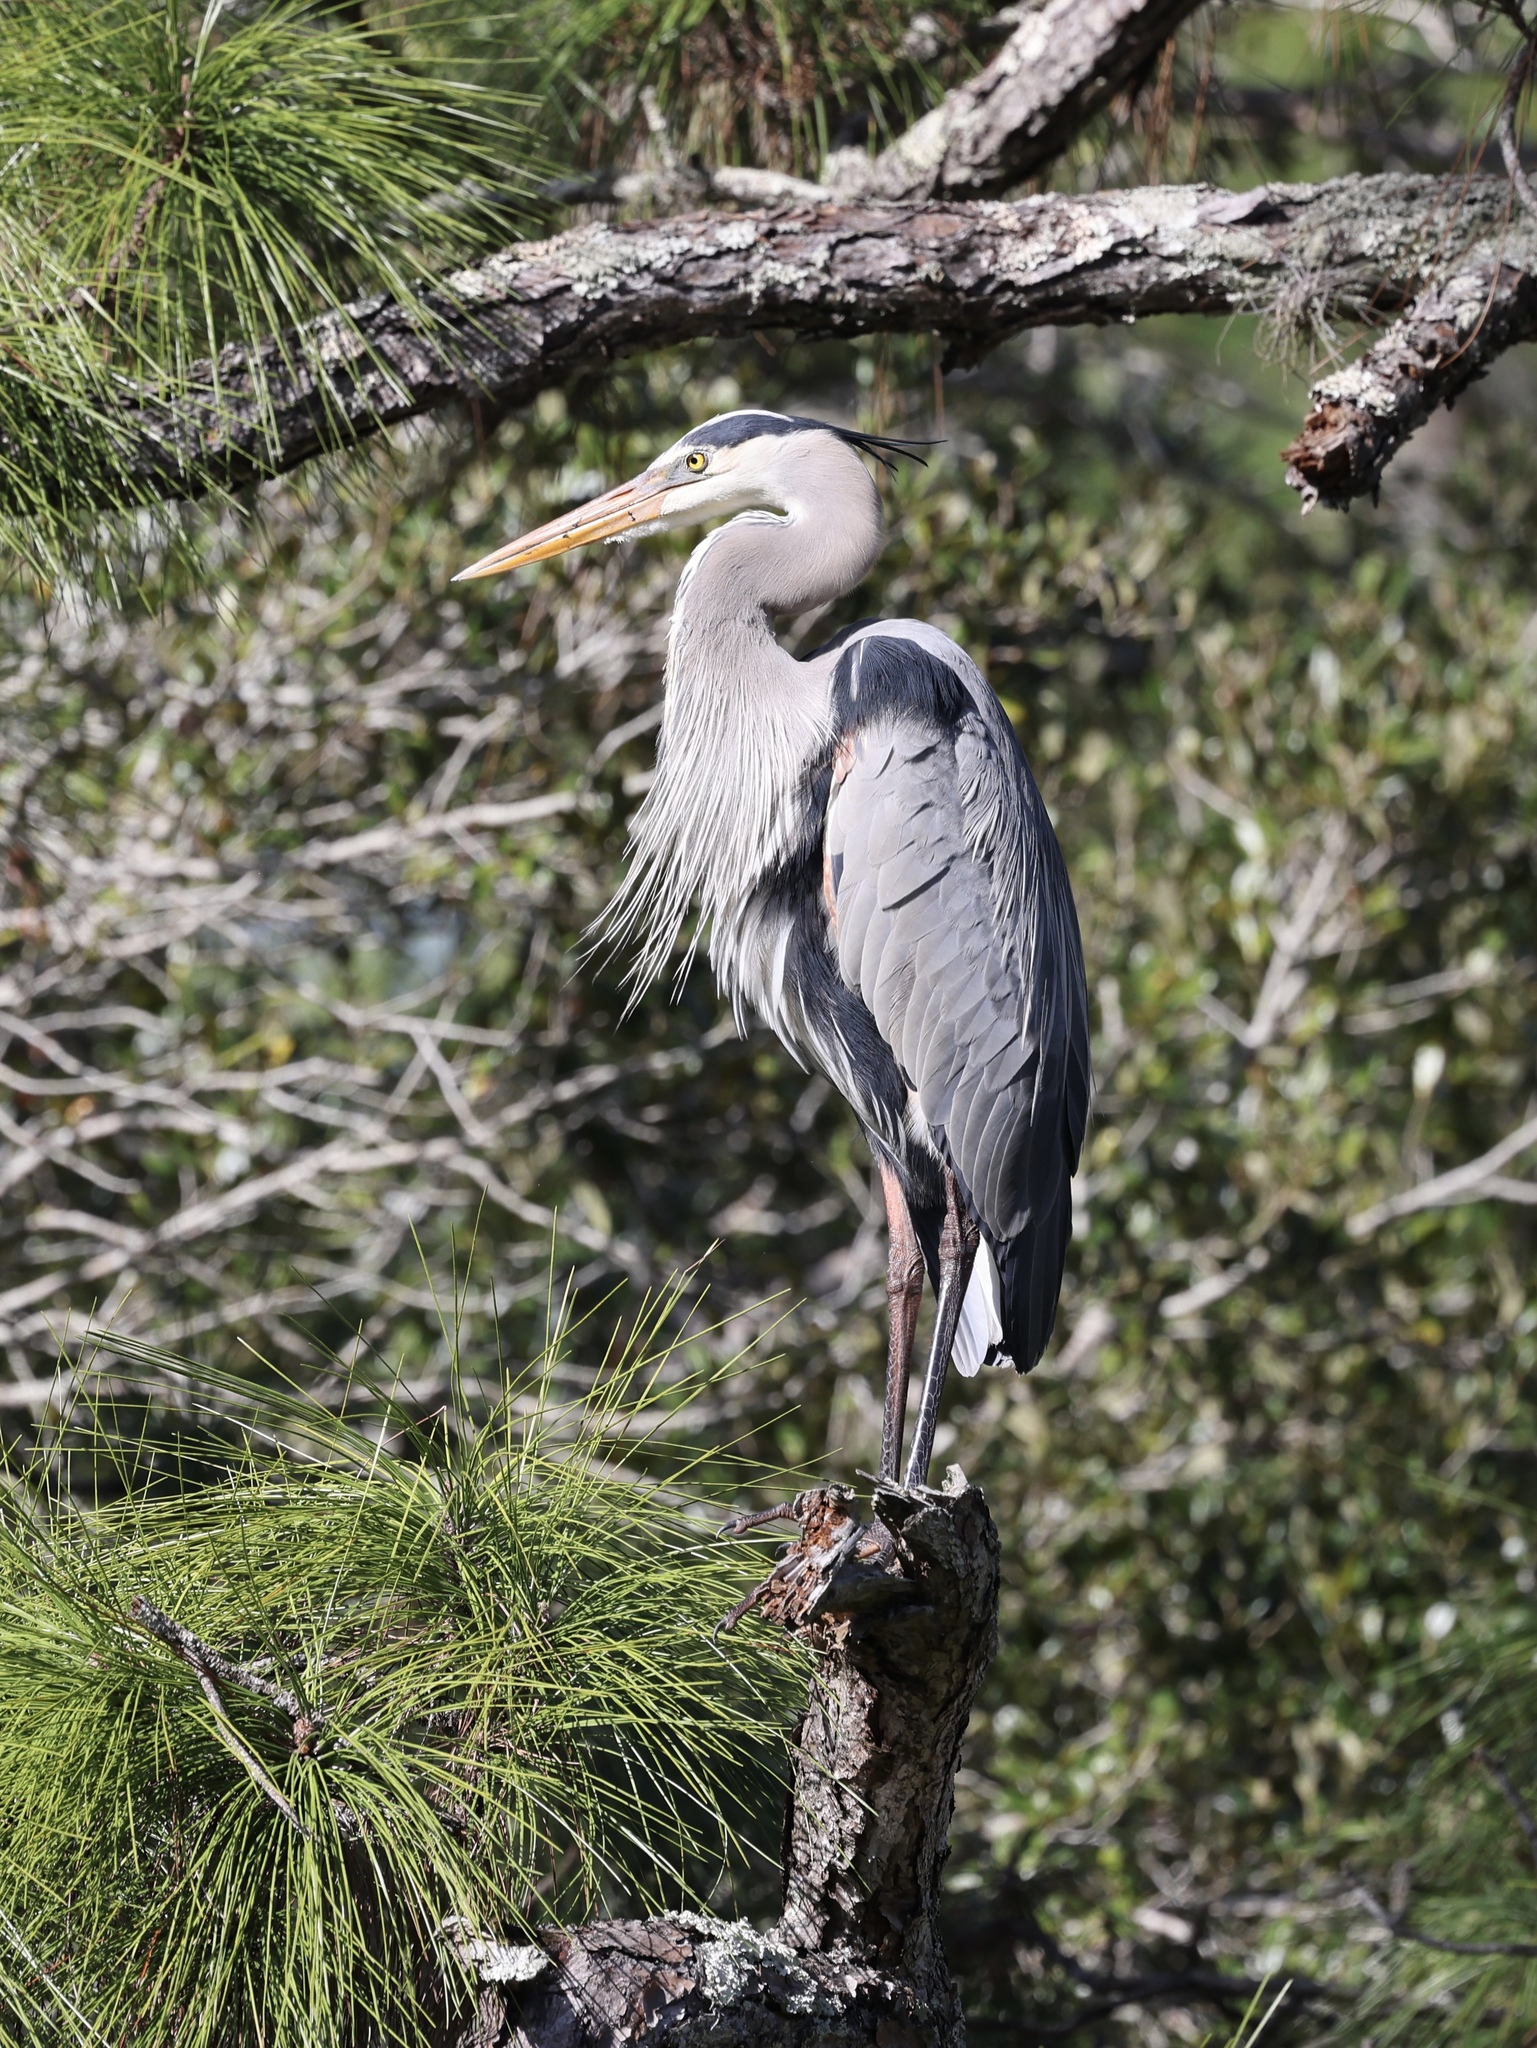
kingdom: Animalia
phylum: Chordata
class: Aves
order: Pelecaniformes
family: Ardeidae
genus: Ardea
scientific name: Ardea herodias
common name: Great blue heron
